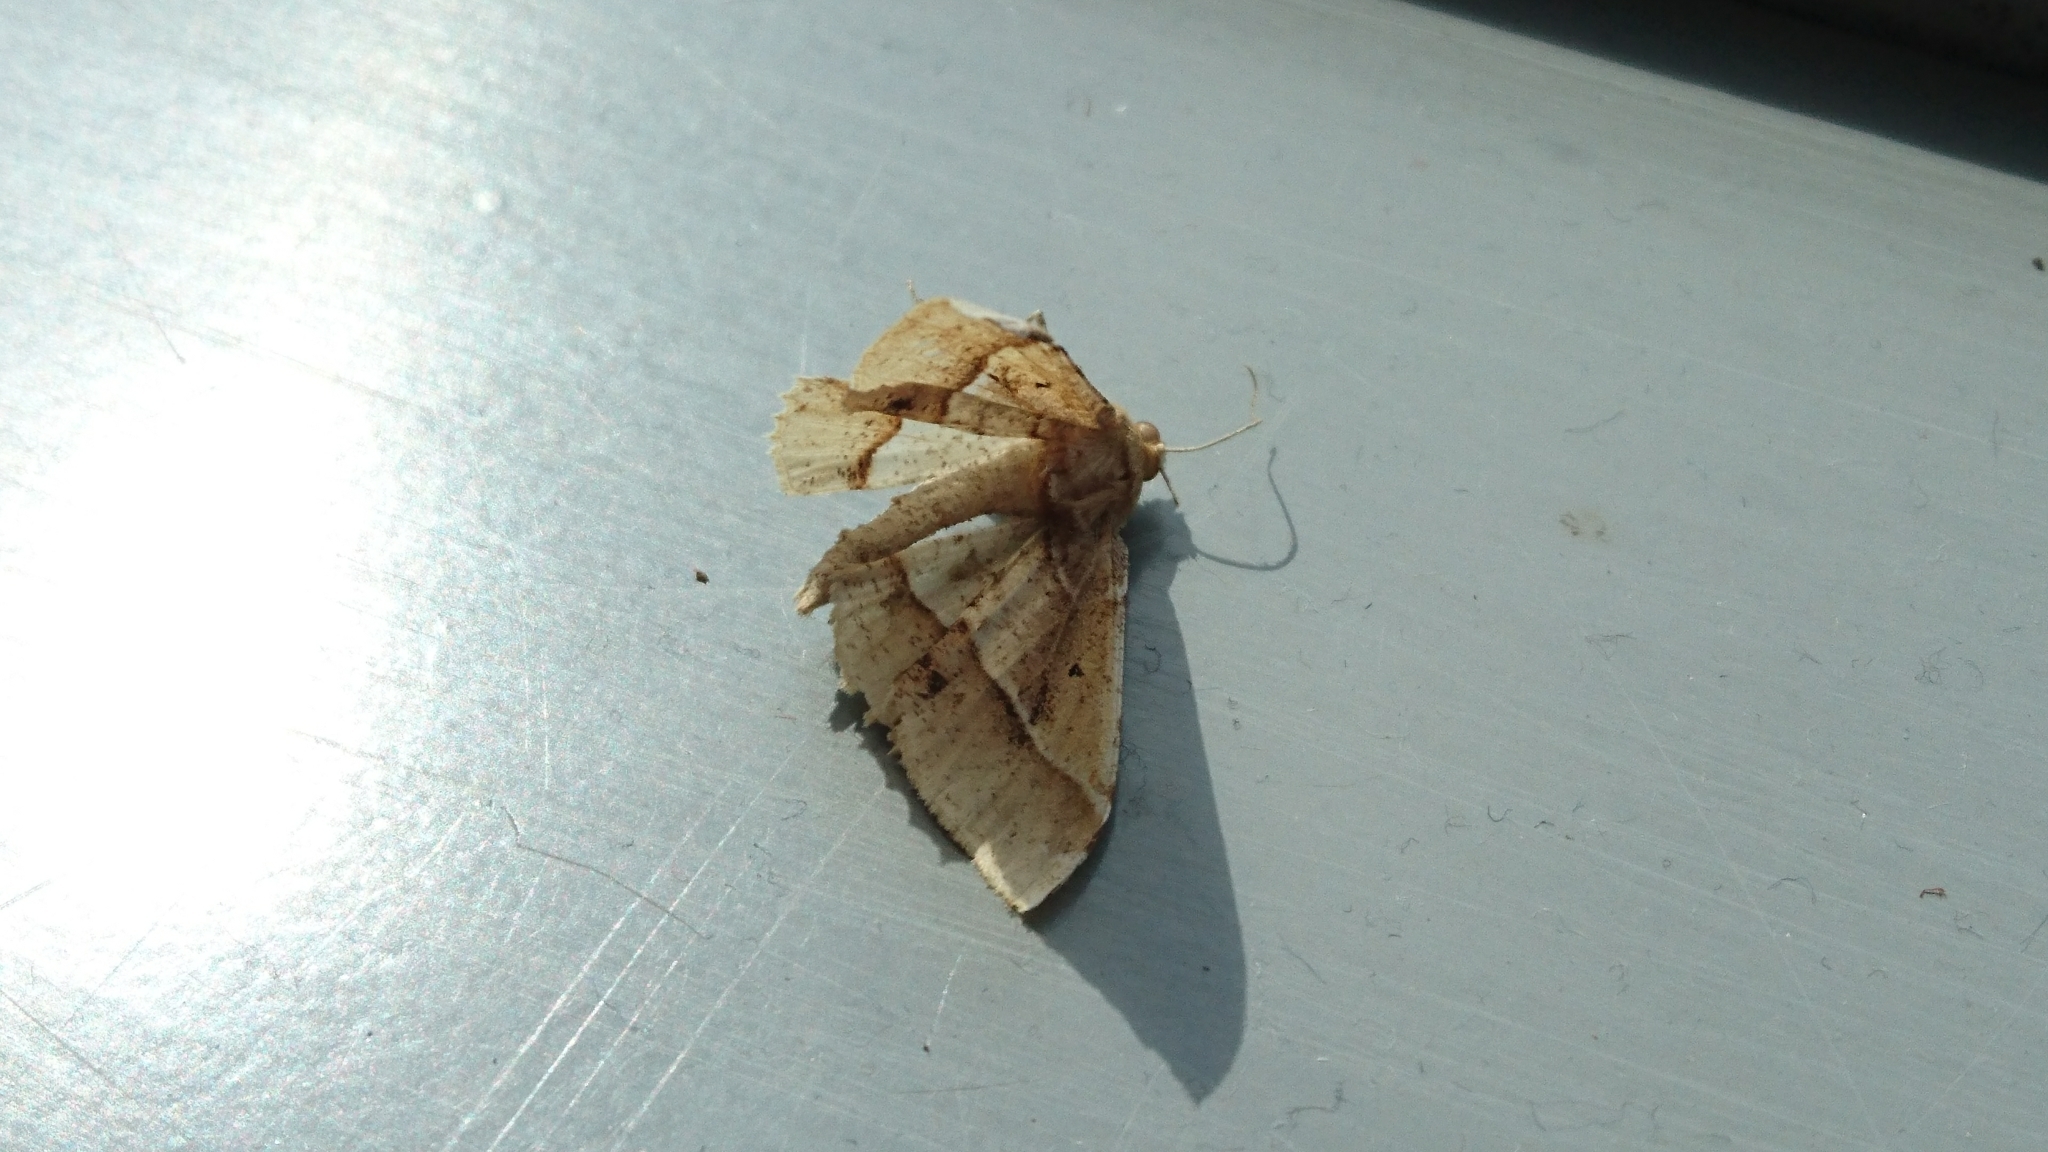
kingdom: Animalia
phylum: Arthropoda
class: Insecta
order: Lepidoptera
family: Geometridae
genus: Krananda
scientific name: Krananda latimarginaria
